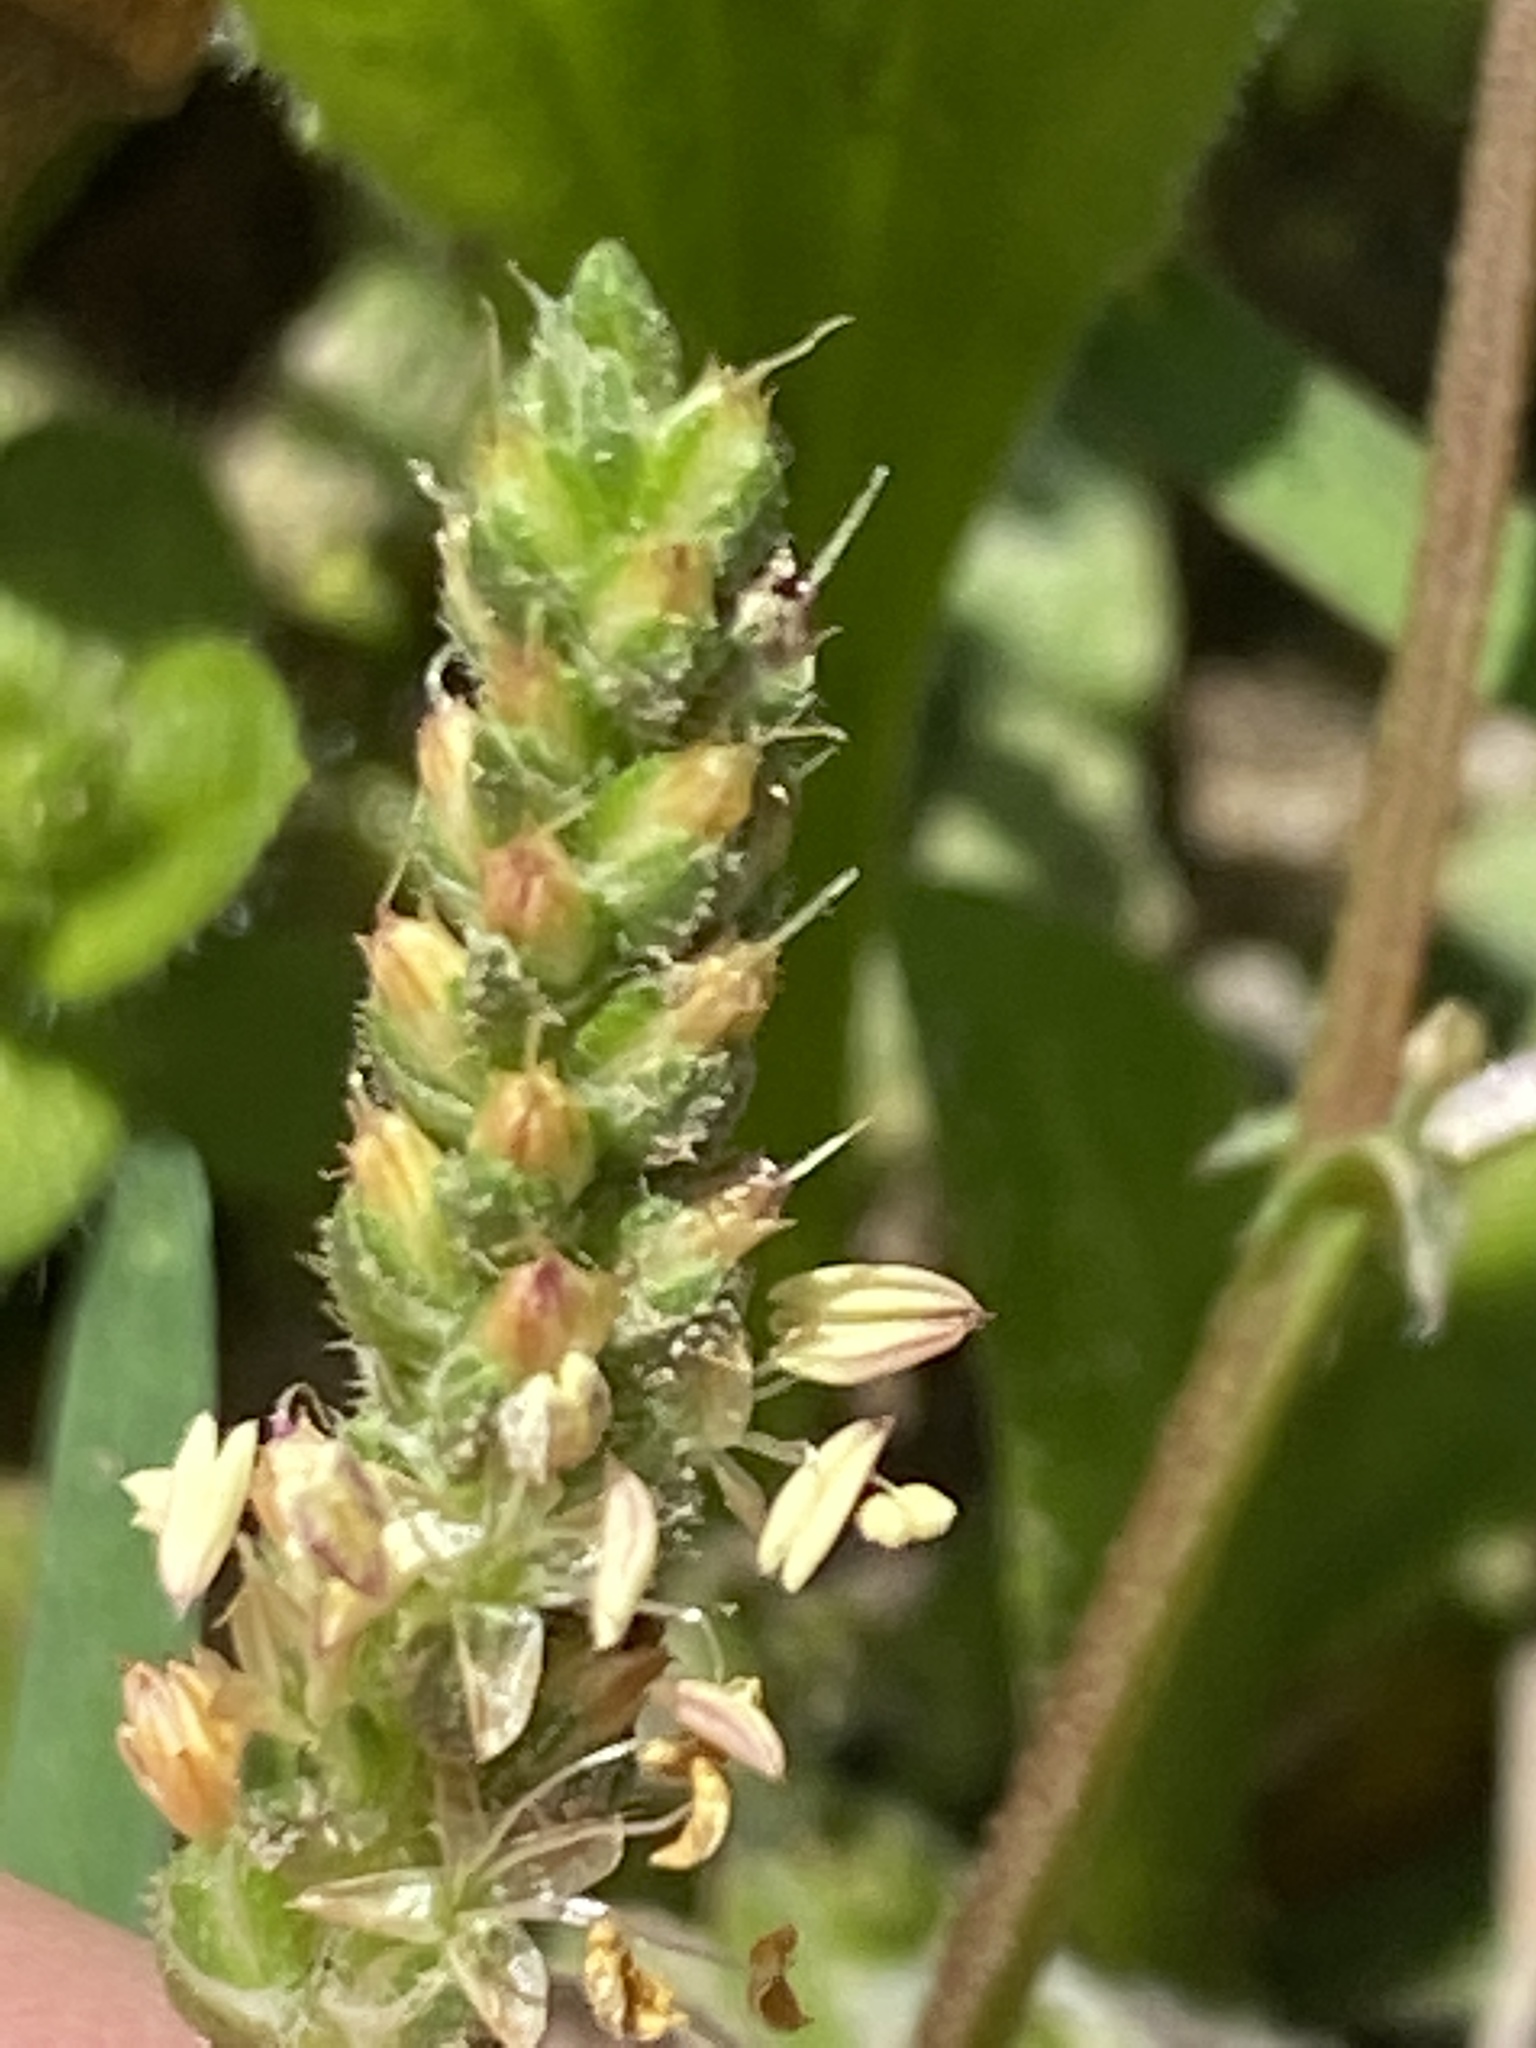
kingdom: Plantae
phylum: Tracheophyta
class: Magnoliopsida
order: Lamiales
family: Plantaginaceae
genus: Plantago
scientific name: Plantago virginica
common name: Hoary plantain
